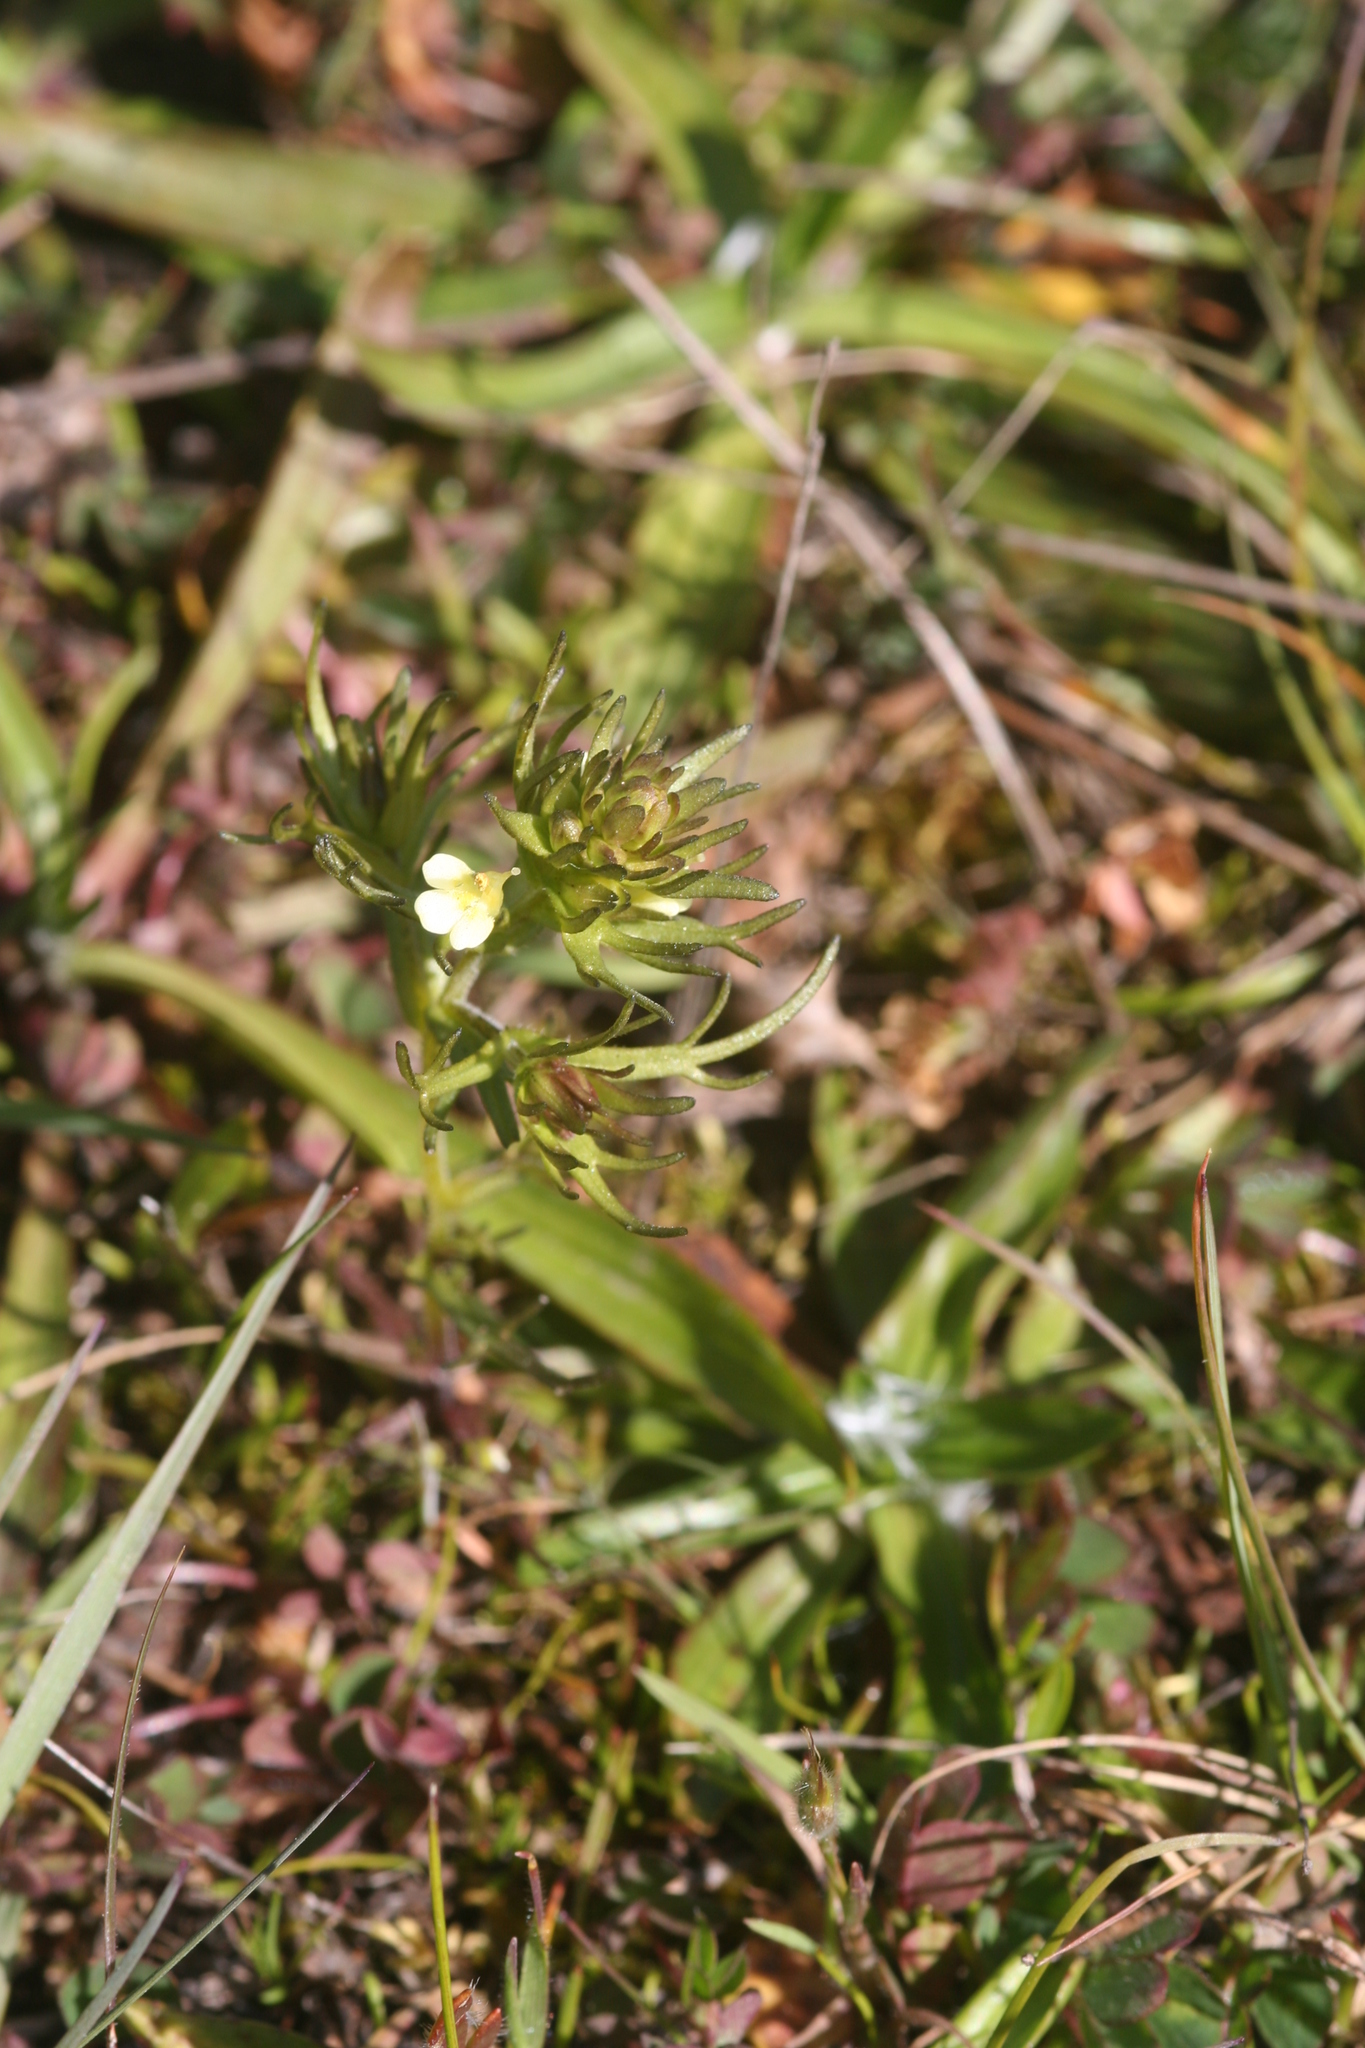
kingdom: Plantae
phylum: Tracheophyta
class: Magnoliopsida
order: Lamiales
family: Orobanchaceae
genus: Triphysaria
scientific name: Triphysaria floribunda
